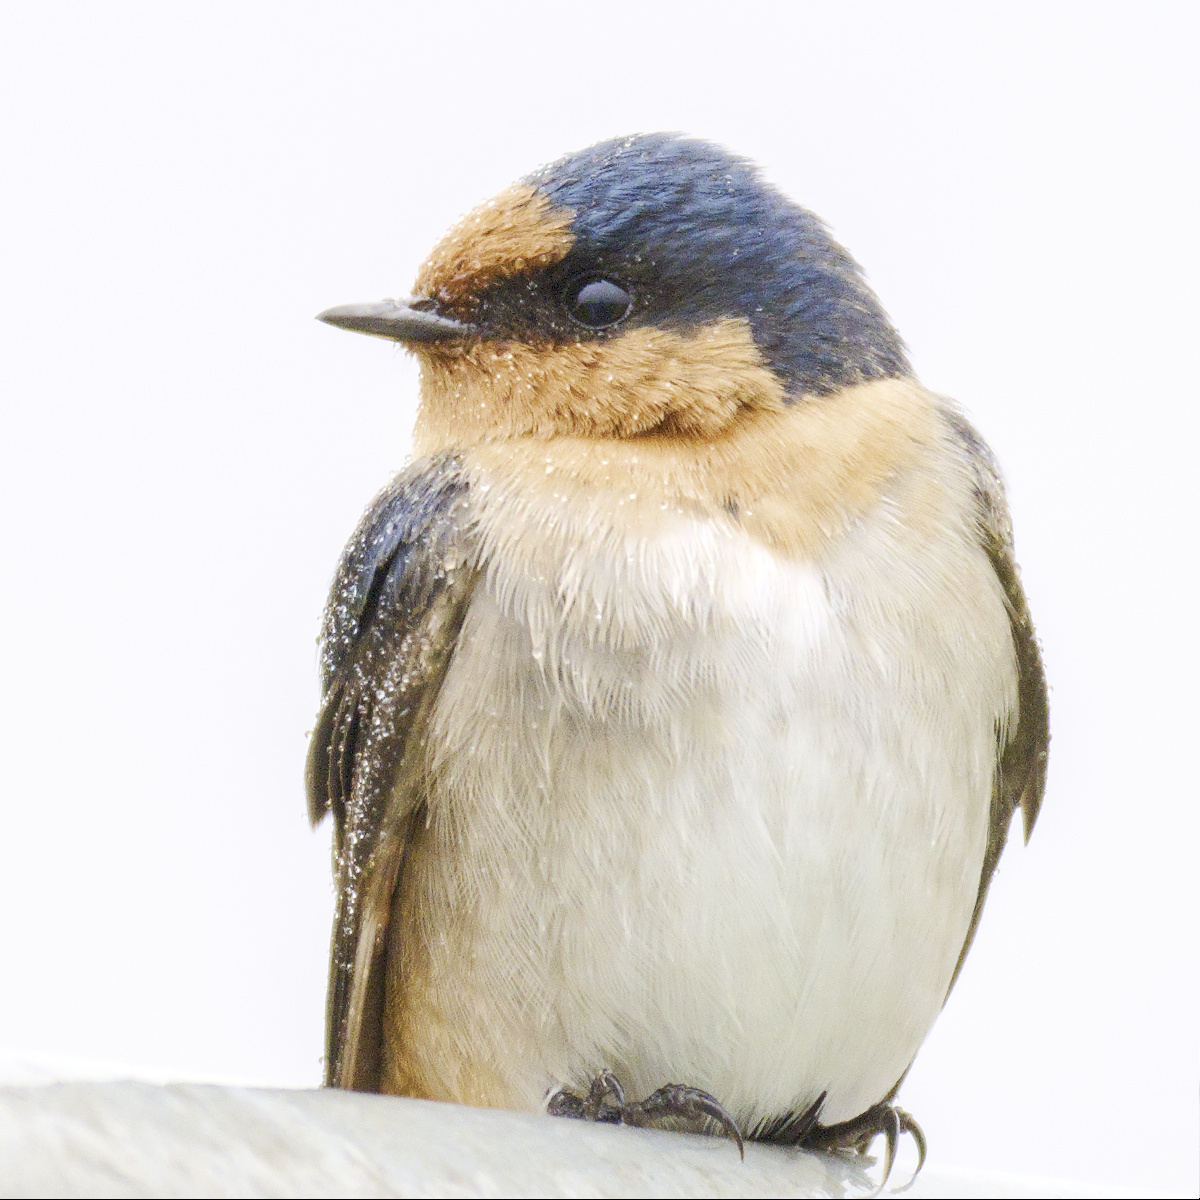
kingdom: Animalia
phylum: Chordata
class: Aves
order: Passeriformes
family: Hirundinidae
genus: Hirundo
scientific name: Hirundo neoxena
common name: Welcome swallow
